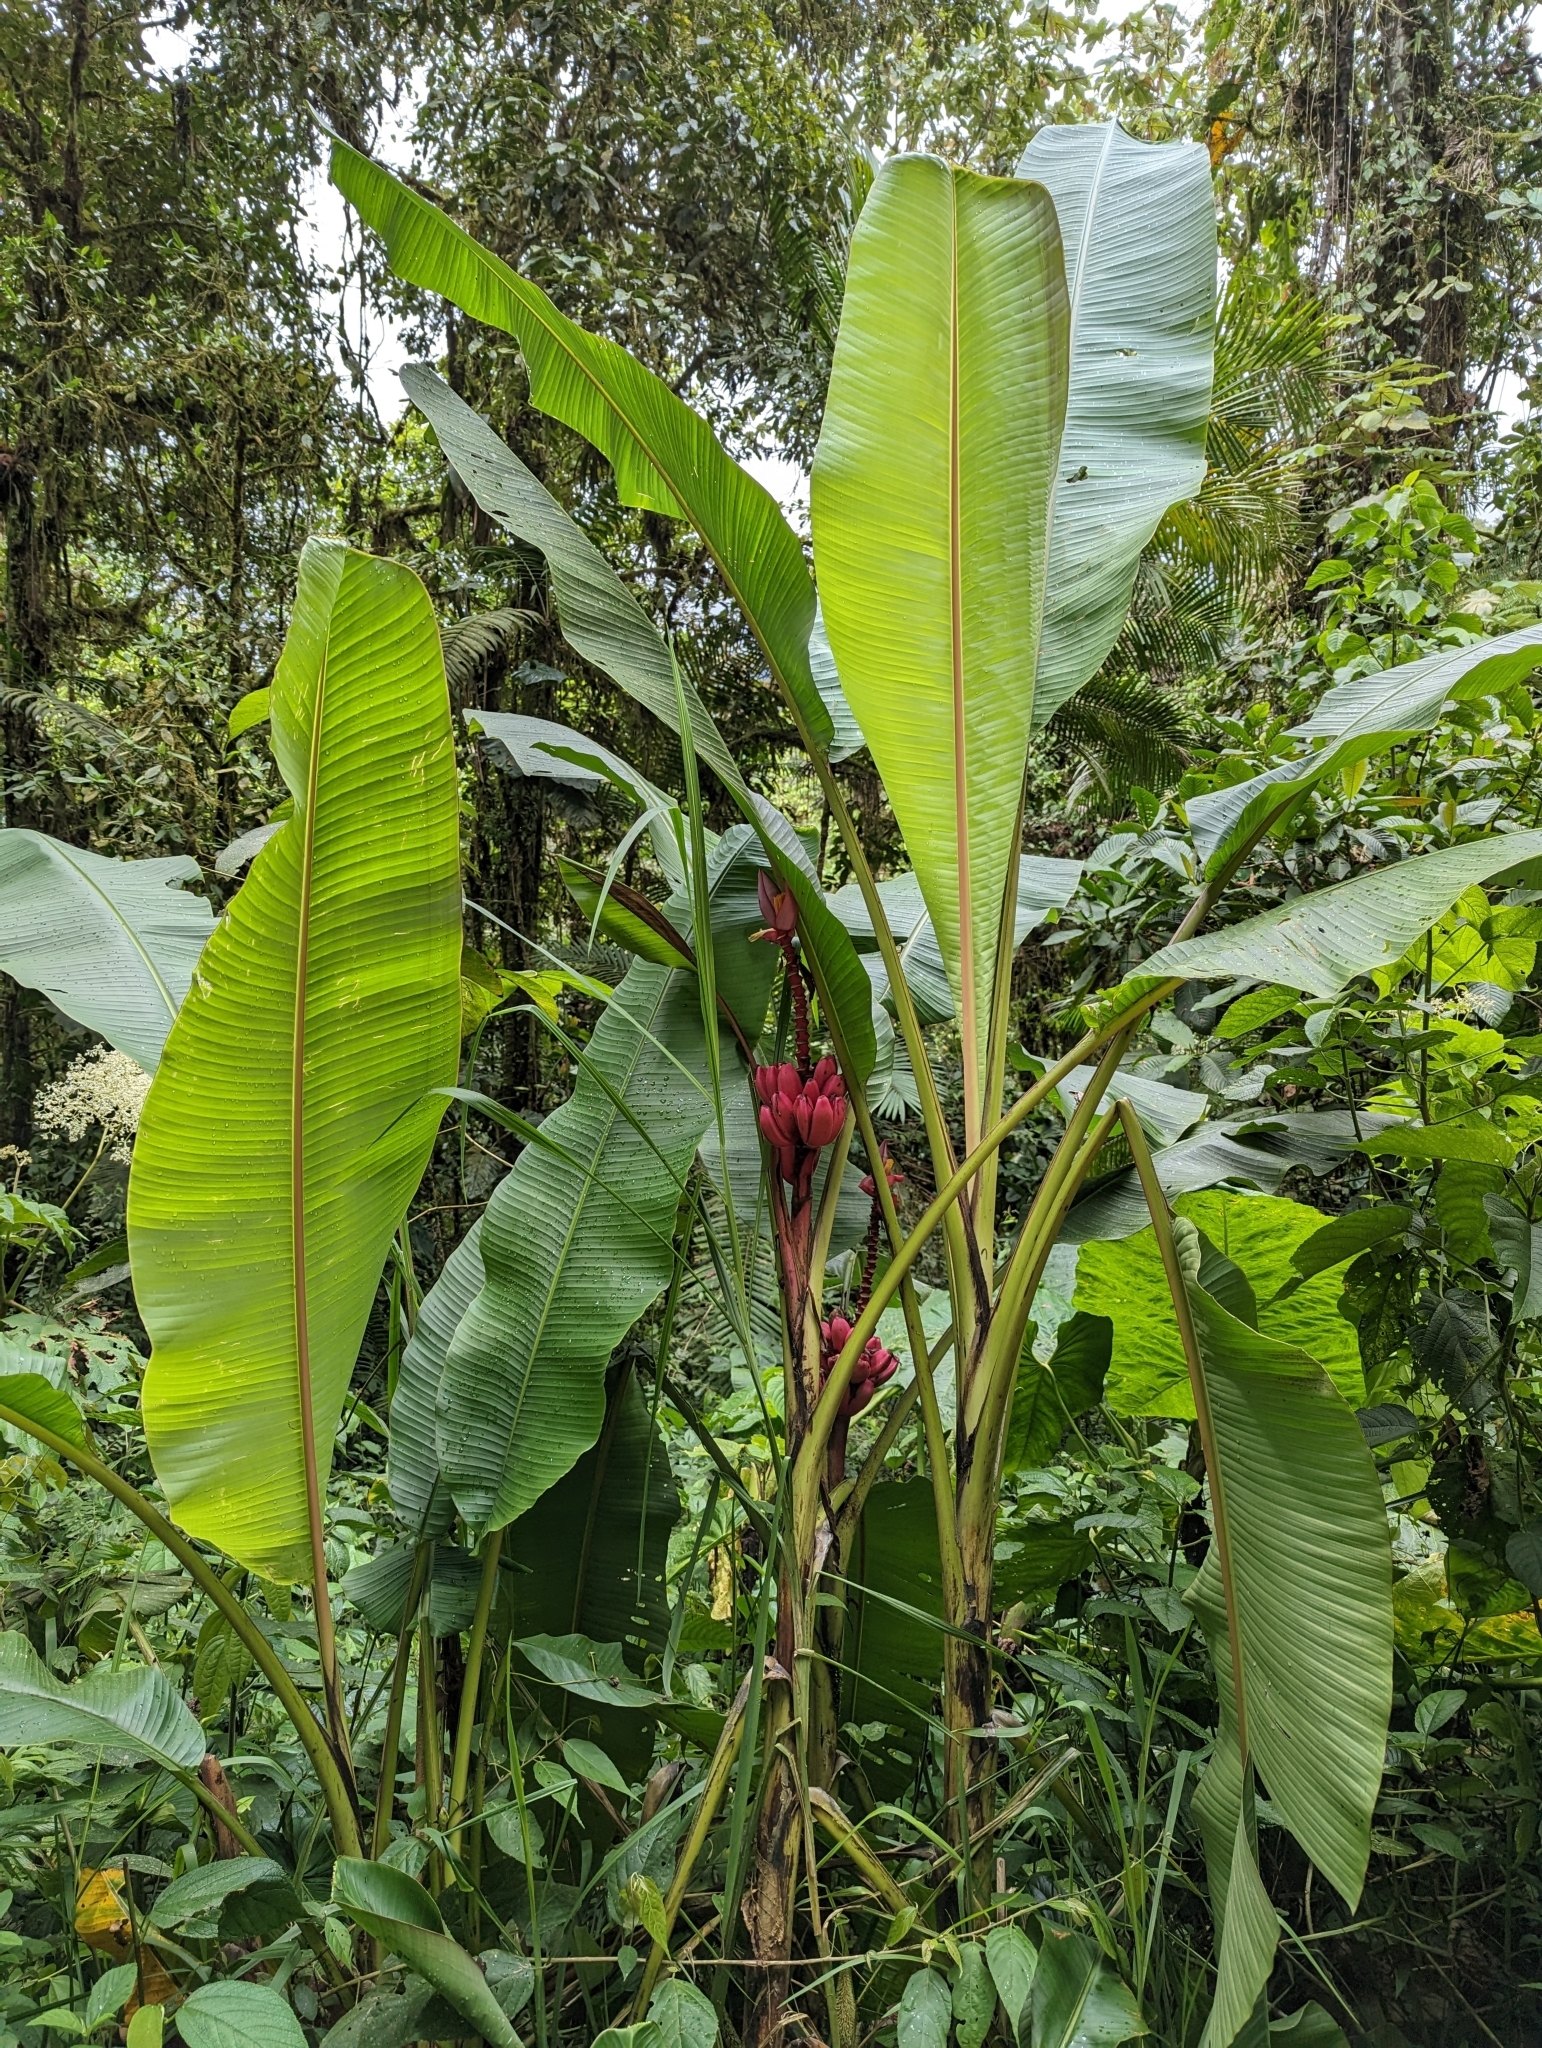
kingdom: Plantae
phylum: Tracheophyta
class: Liliopsida
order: Zingiberales
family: Musaceae
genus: Musa
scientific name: Musa velutina
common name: Pink velvet banana
